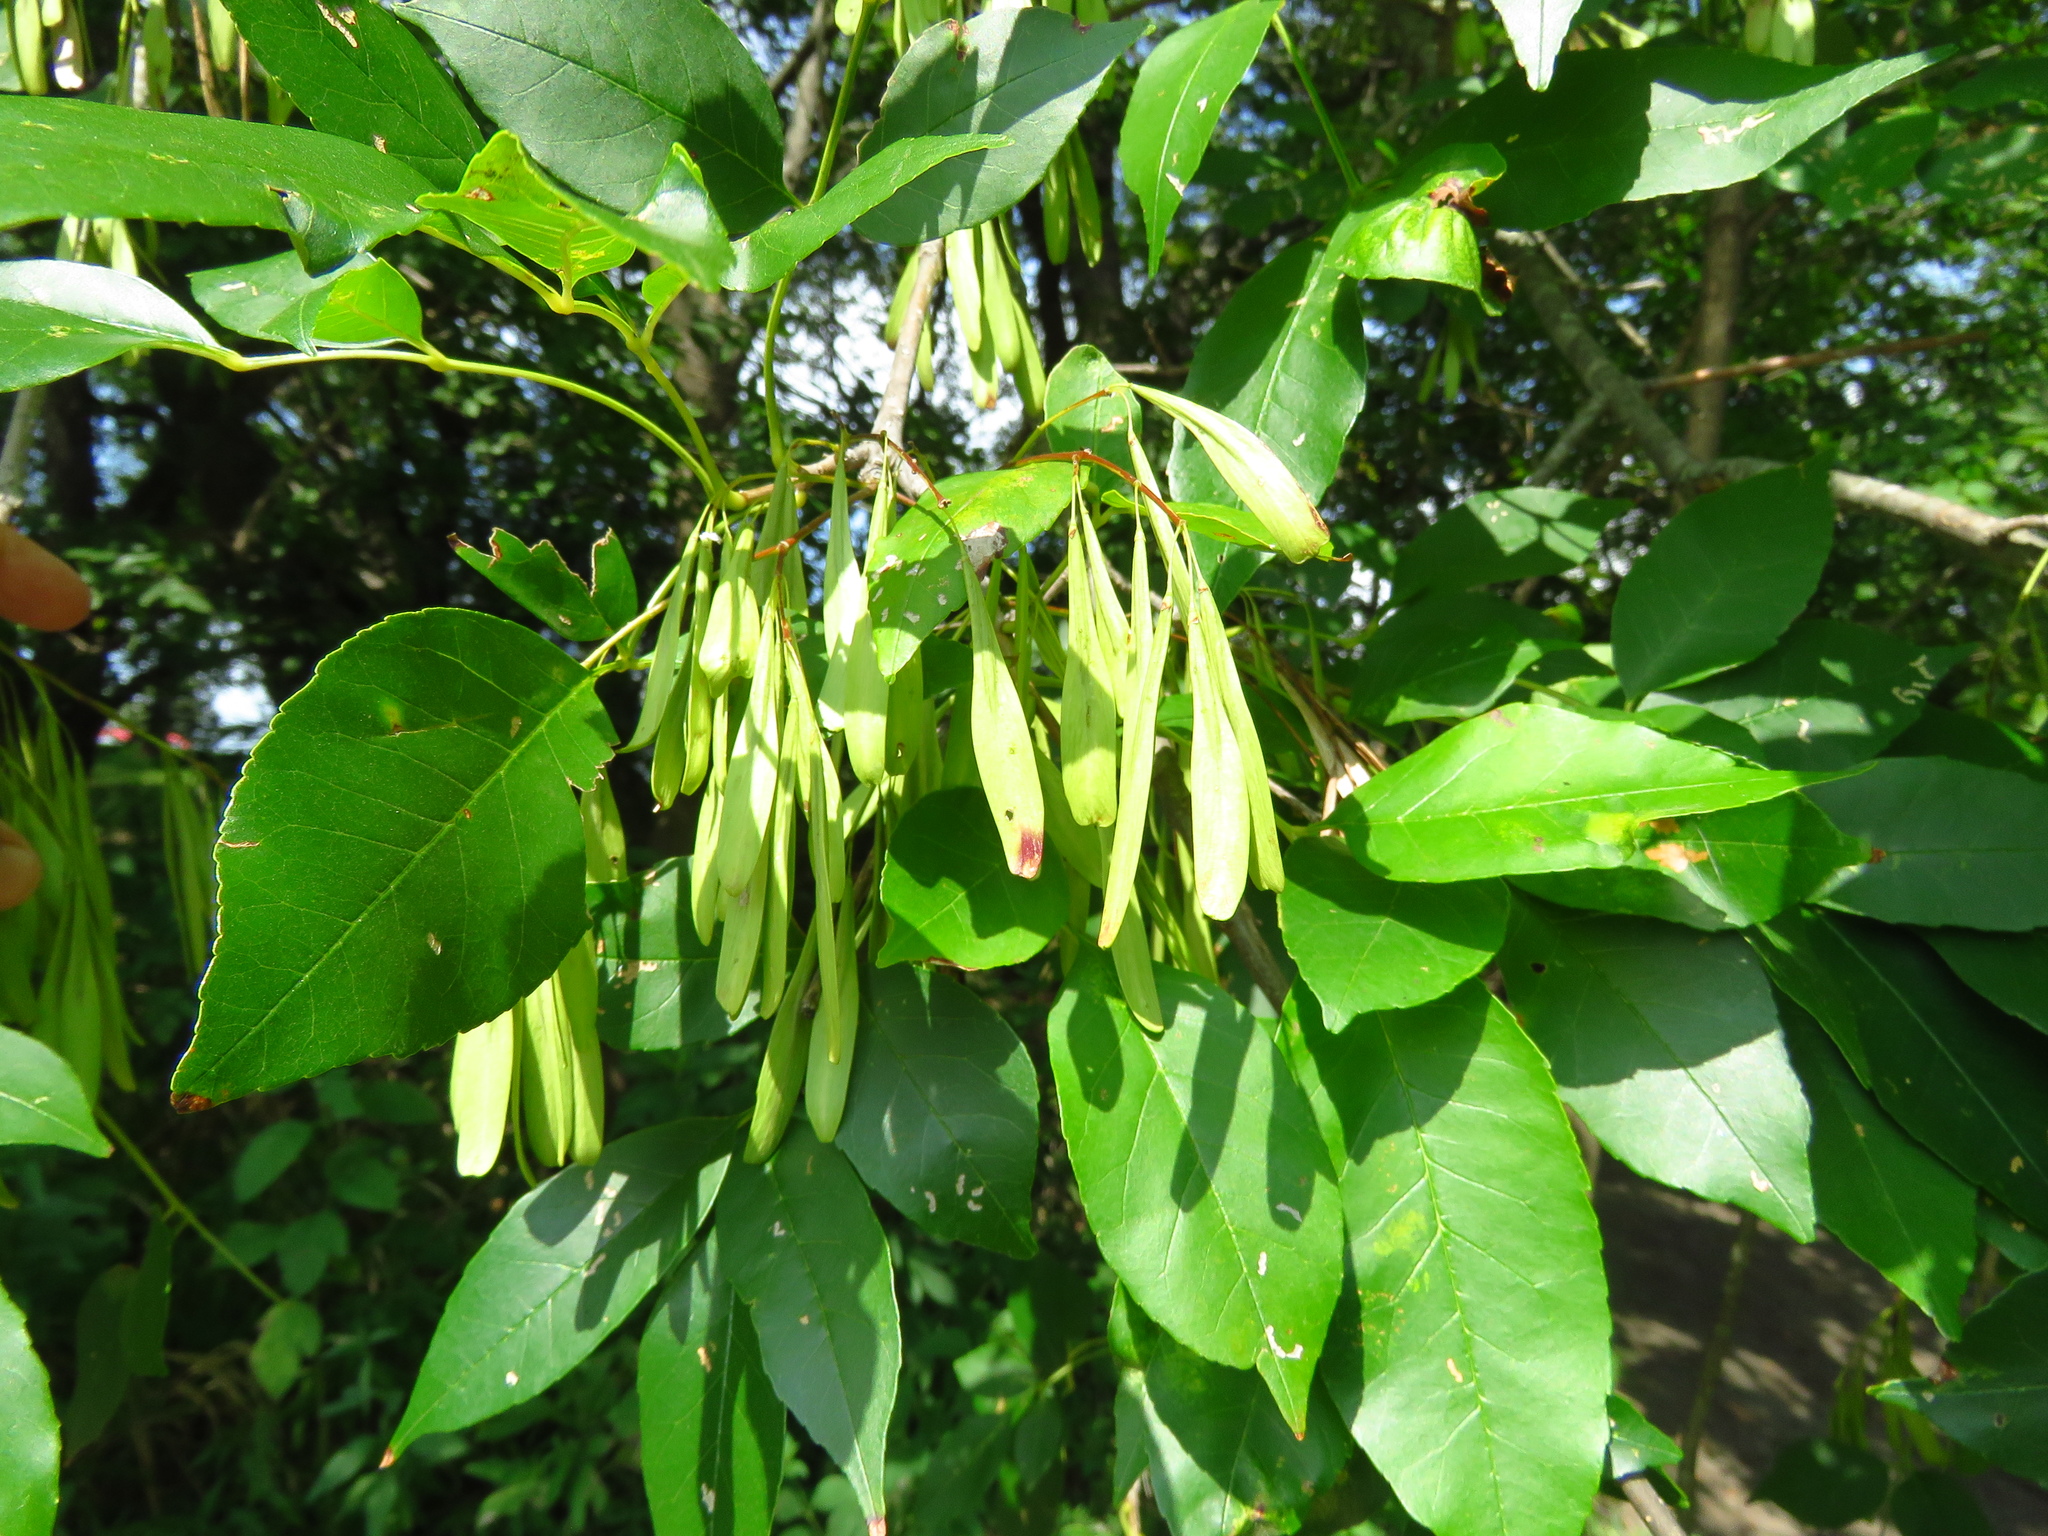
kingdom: Plantae
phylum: Tracheophyta
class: Magnoliopsida
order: Lamiales
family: Oleaceae
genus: Fraxinus
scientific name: Fraxinus pennsylvanica
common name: Green ash
